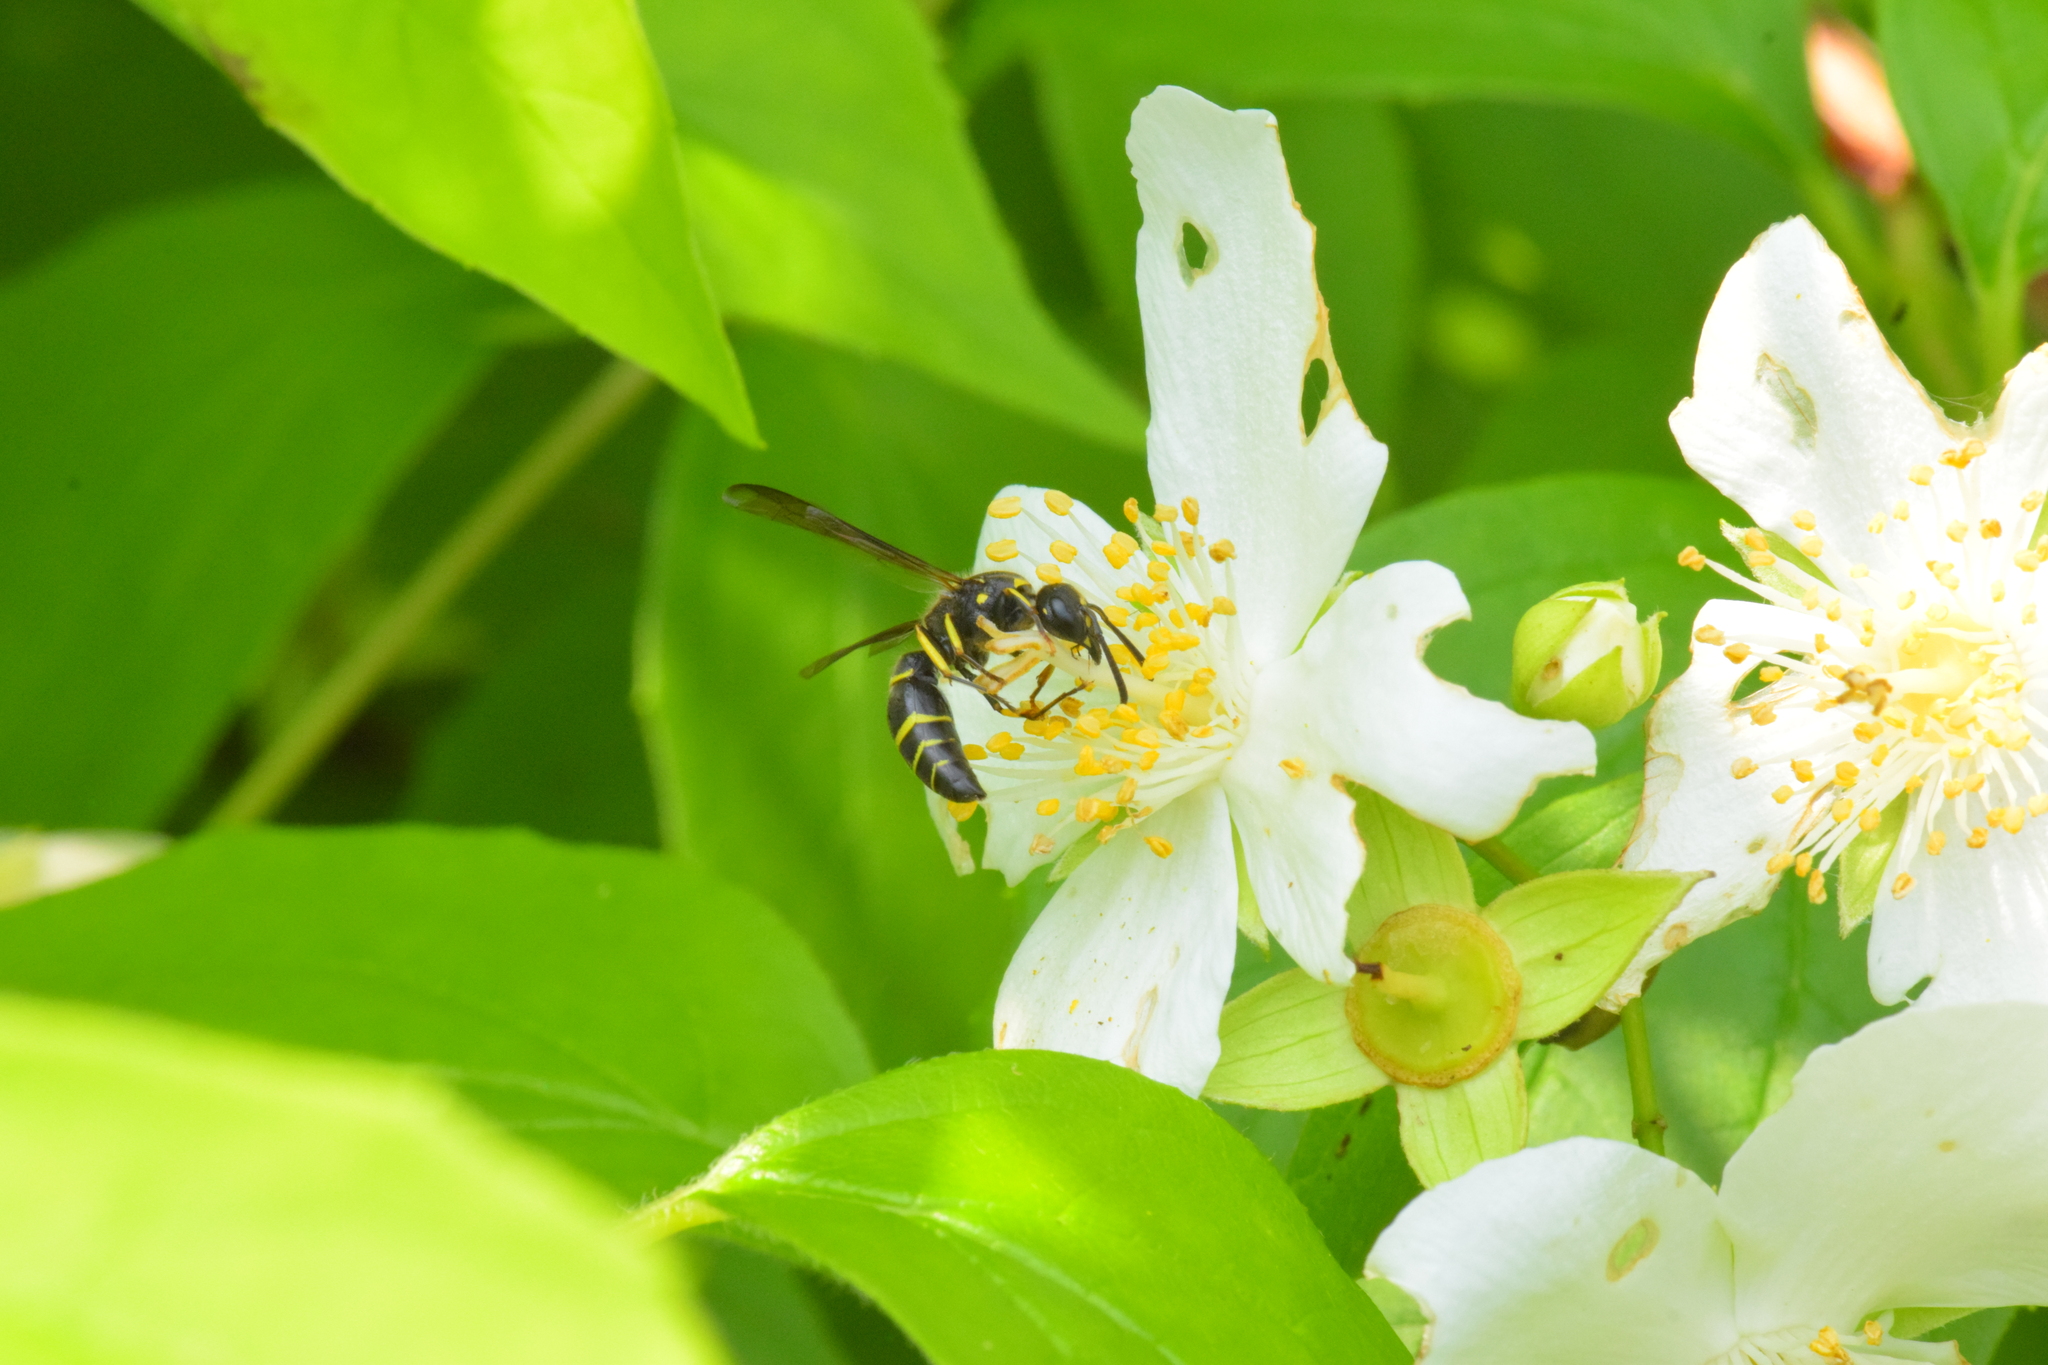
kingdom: Animalia
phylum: Arthropoda
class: Insecta
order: Hymenoptera
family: Vespidae
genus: Ancistrocerus
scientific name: Ancistrocerus
